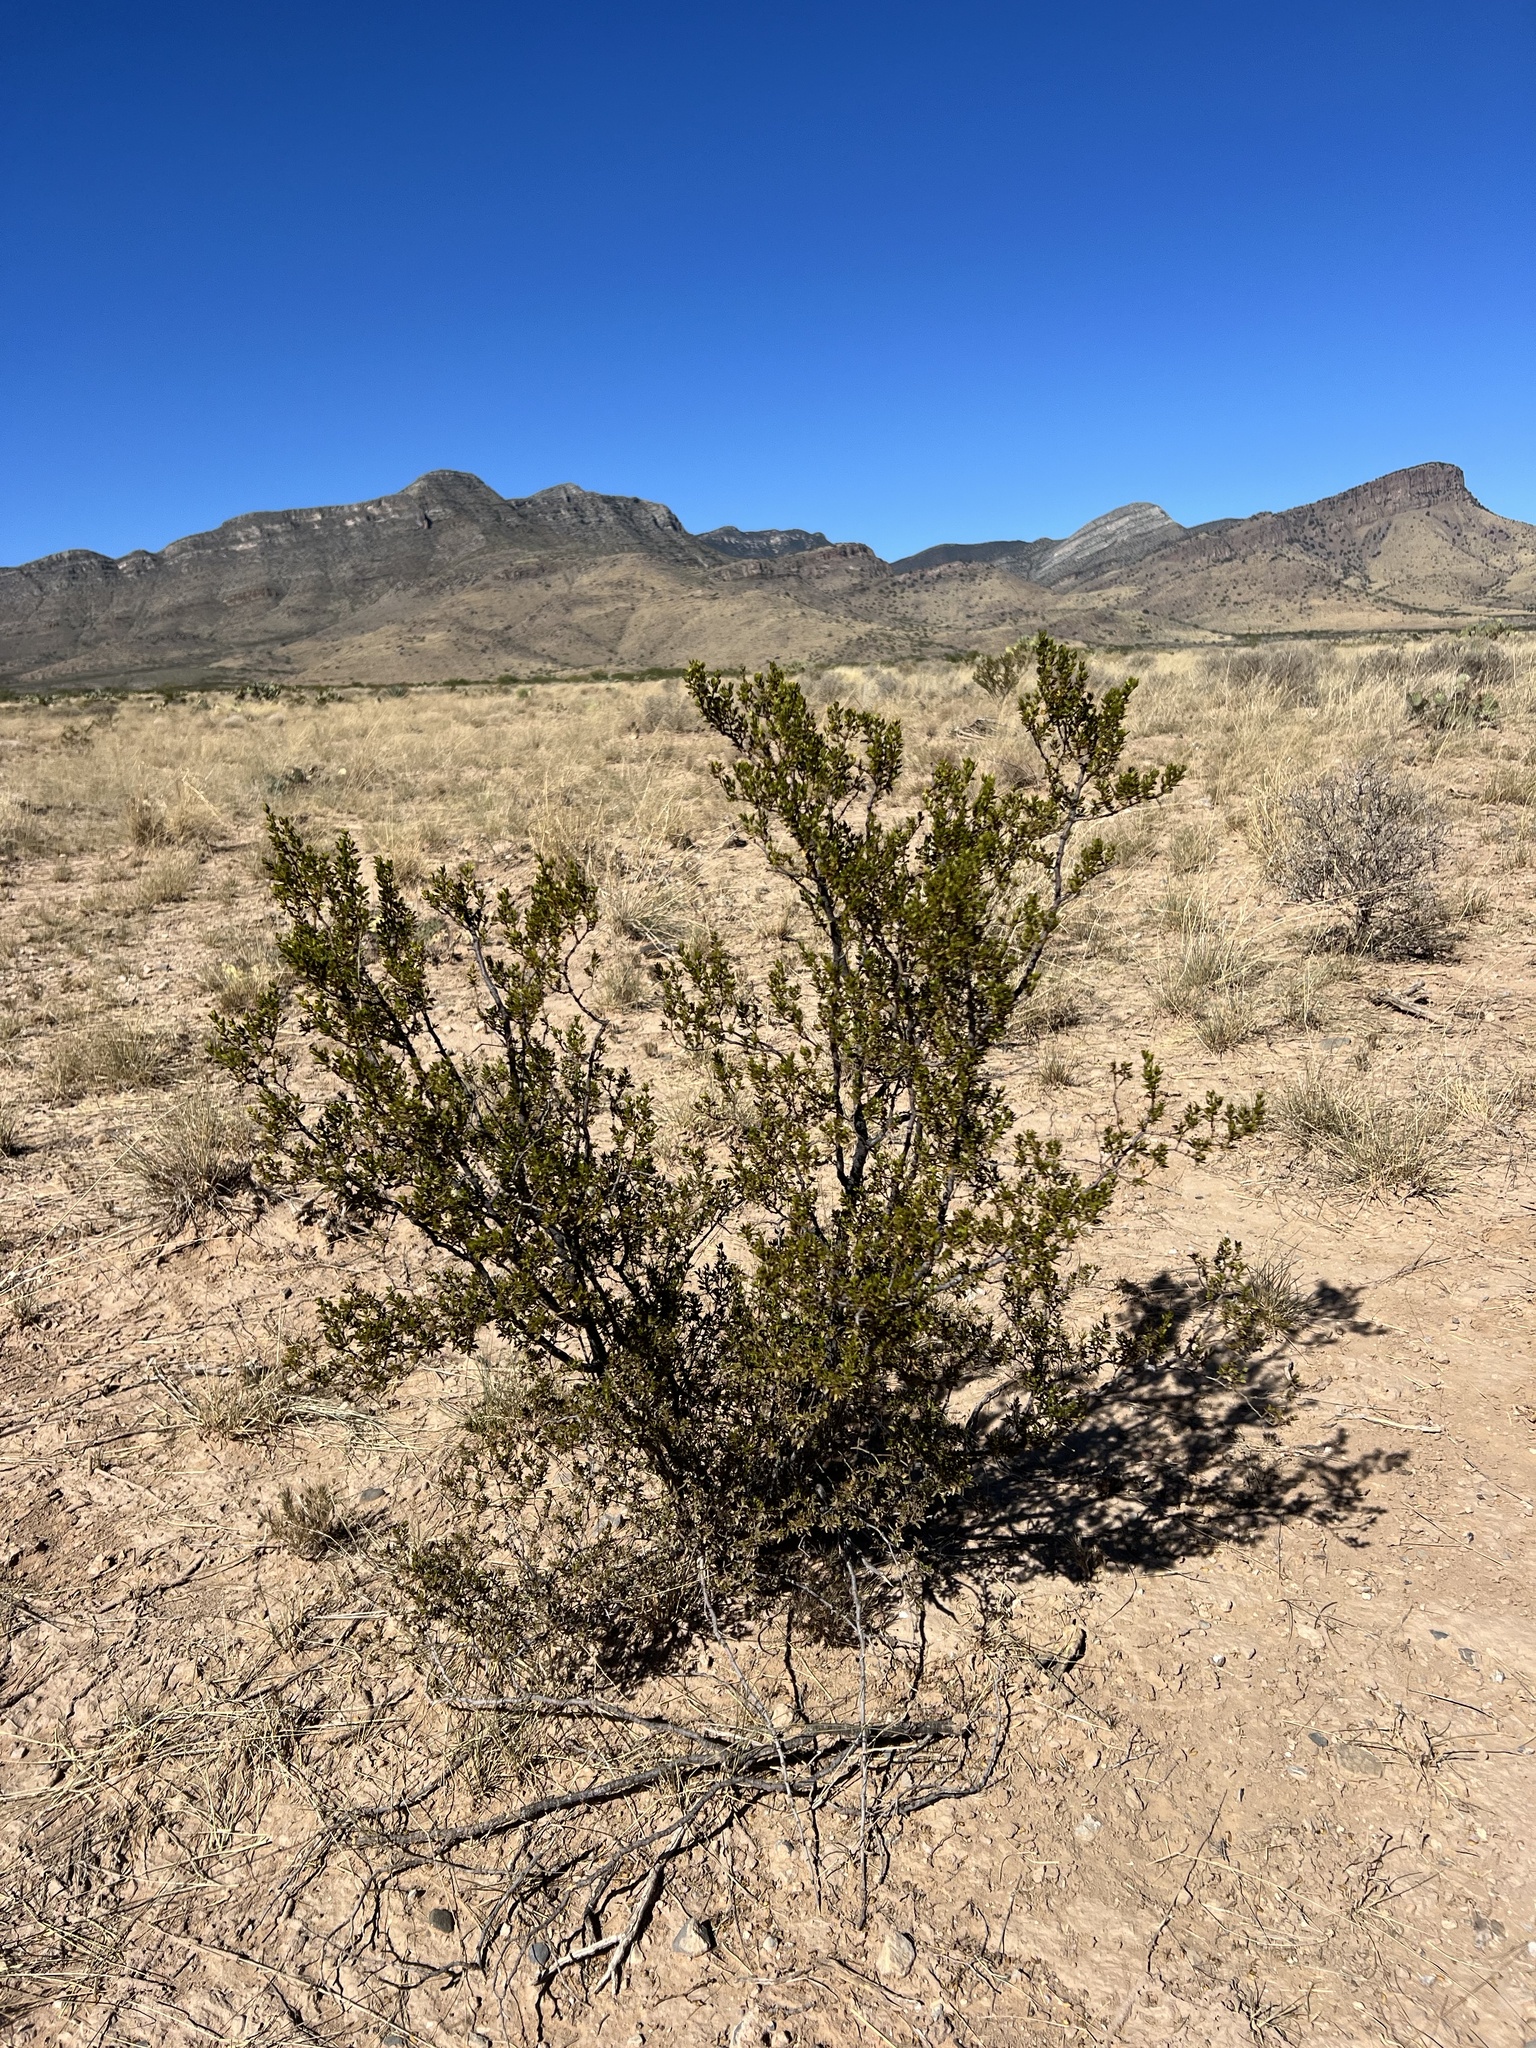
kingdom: Plantae
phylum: Tracheophyta
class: Magnoliopsida
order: Zygophyllales
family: Zygophyllaceae
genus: Larrea
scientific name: Larrea tridentata
